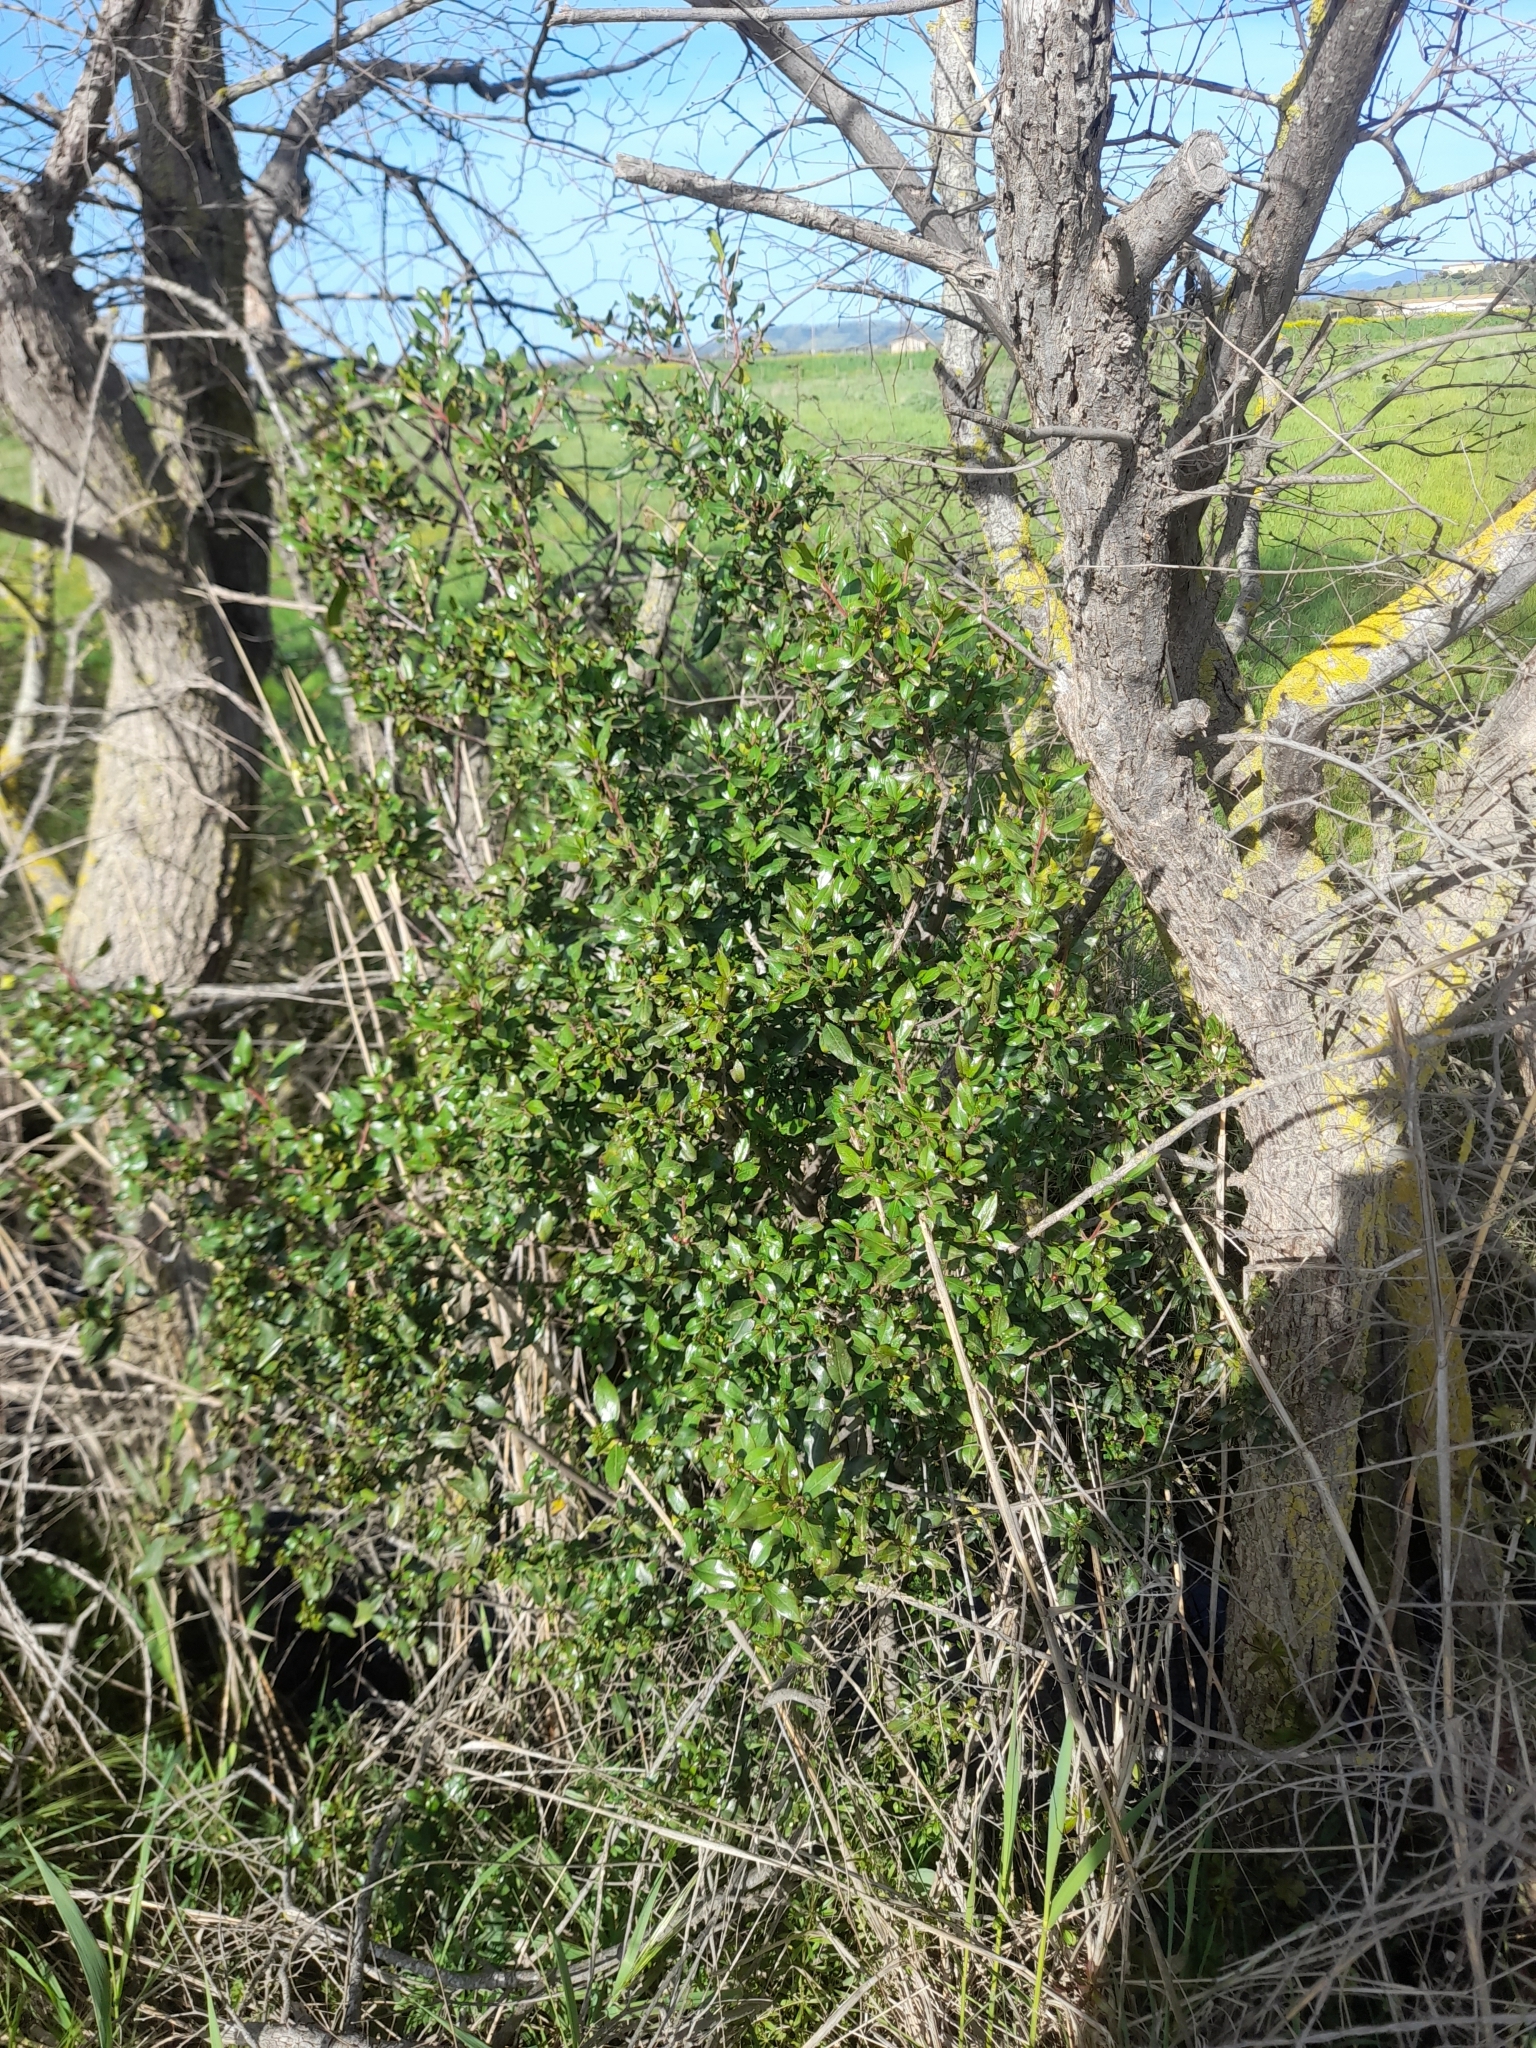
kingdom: Plantae
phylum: Tracheophyta
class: Magnoliopsida
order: Rosales
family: Rhamnaceae
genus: Rhamnus
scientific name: Rhamnus alaternus
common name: Mediterranean buckthorn
